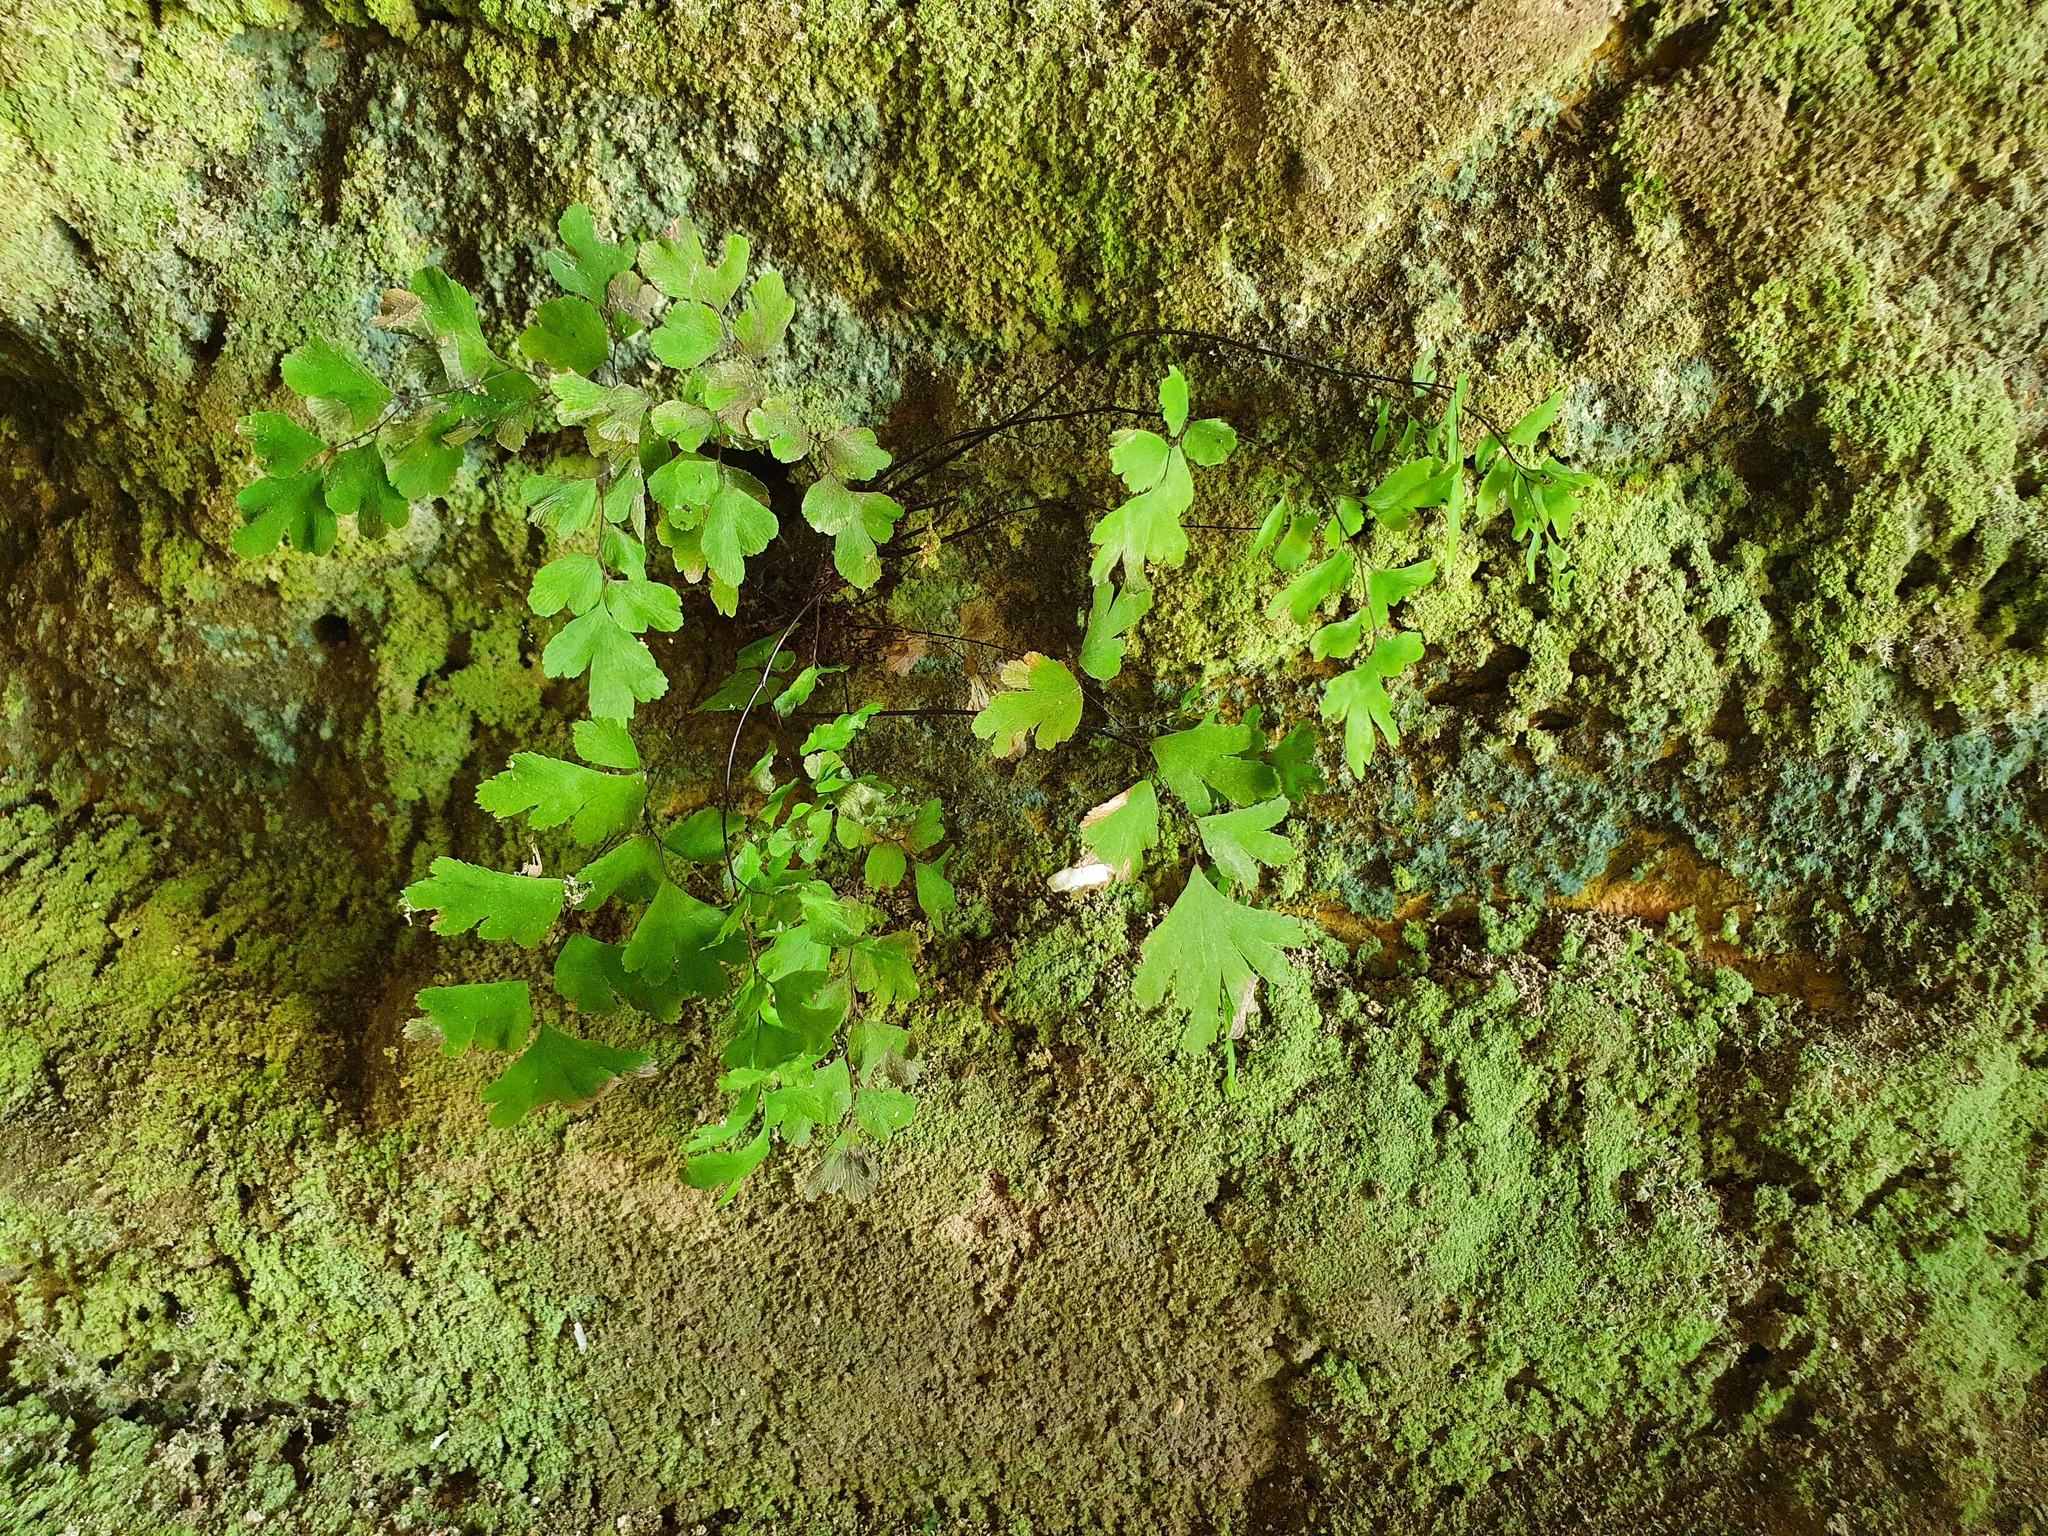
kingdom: Plantae
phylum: Tracheophyta
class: Polypodiopsida
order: Polypodiales
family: Pteridaceae
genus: Adiantum
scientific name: Adiantum capillus-veneris
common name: Maidenhair fern
